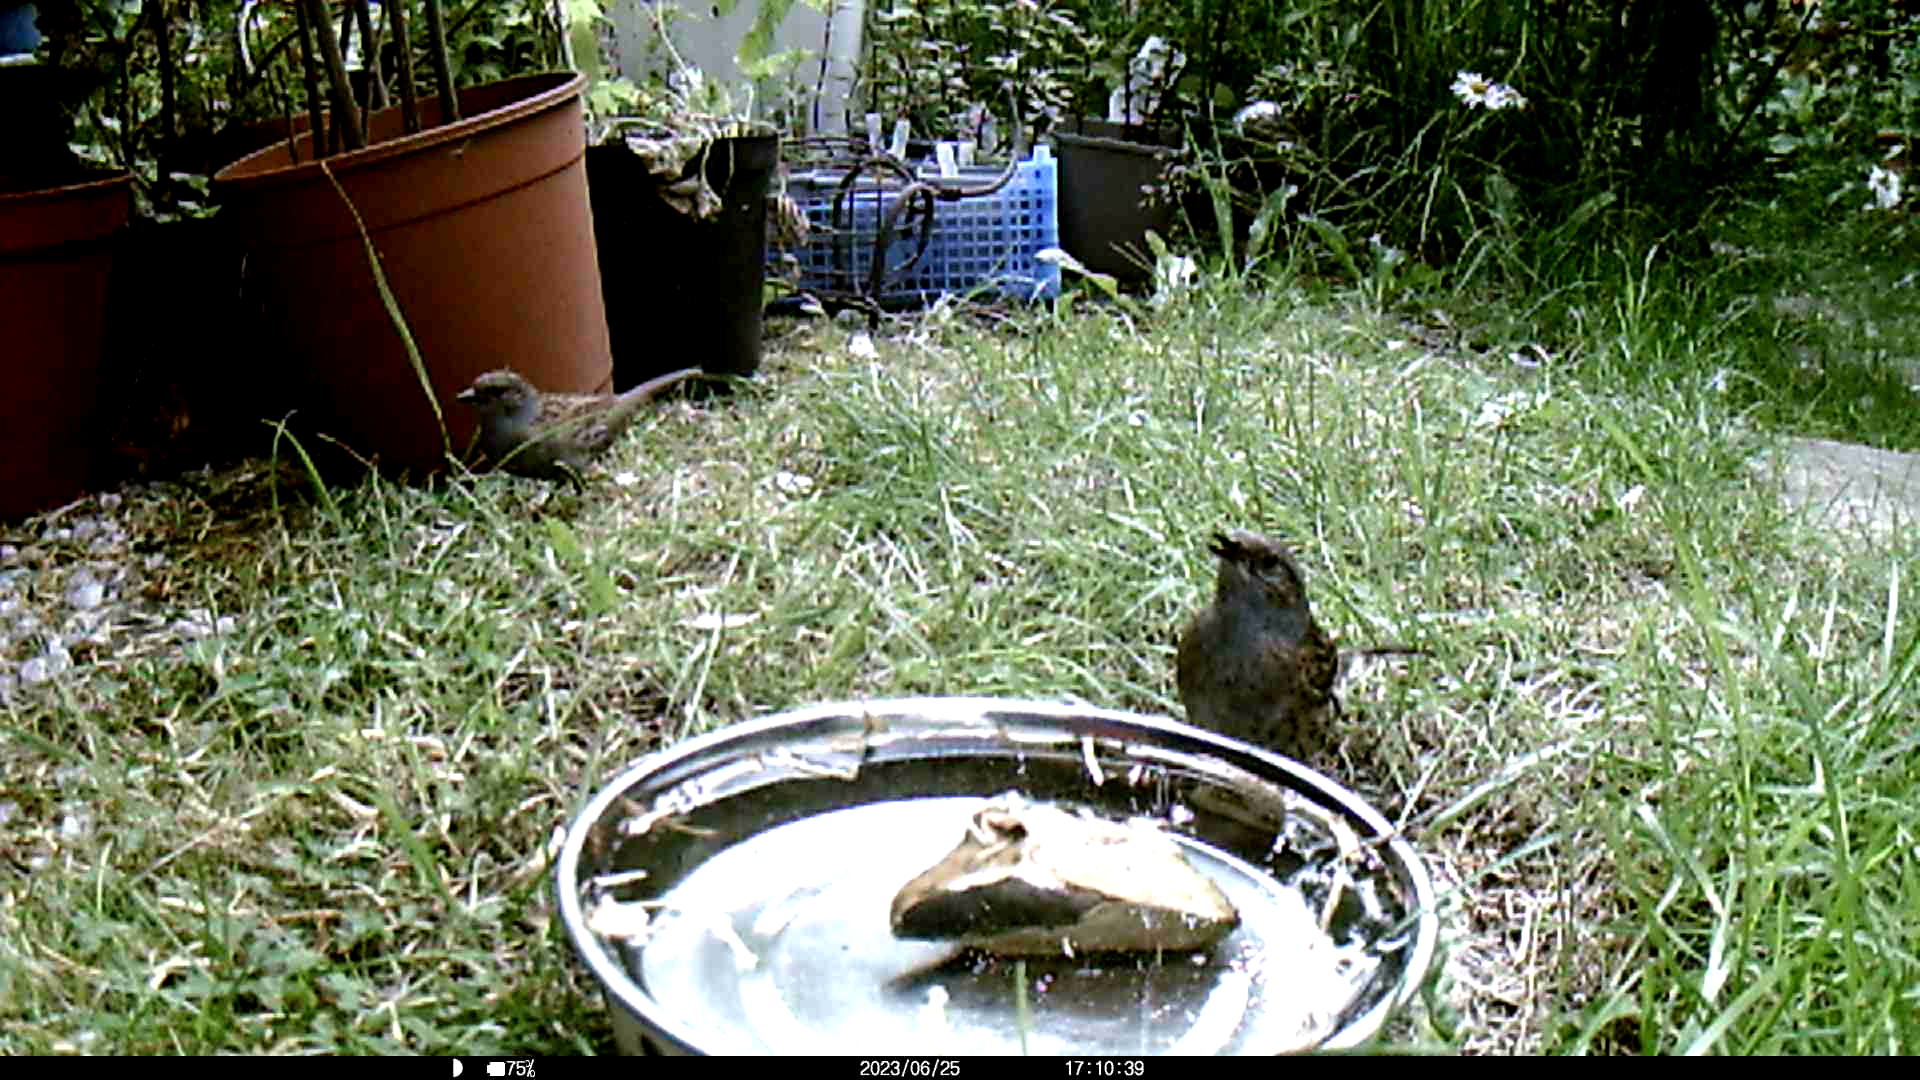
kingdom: Animalia
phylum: Chordata
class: Aves
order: Passeriformes
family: Prunellidae
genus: Prunella
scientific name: Prunella modularis
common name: Dunnock
